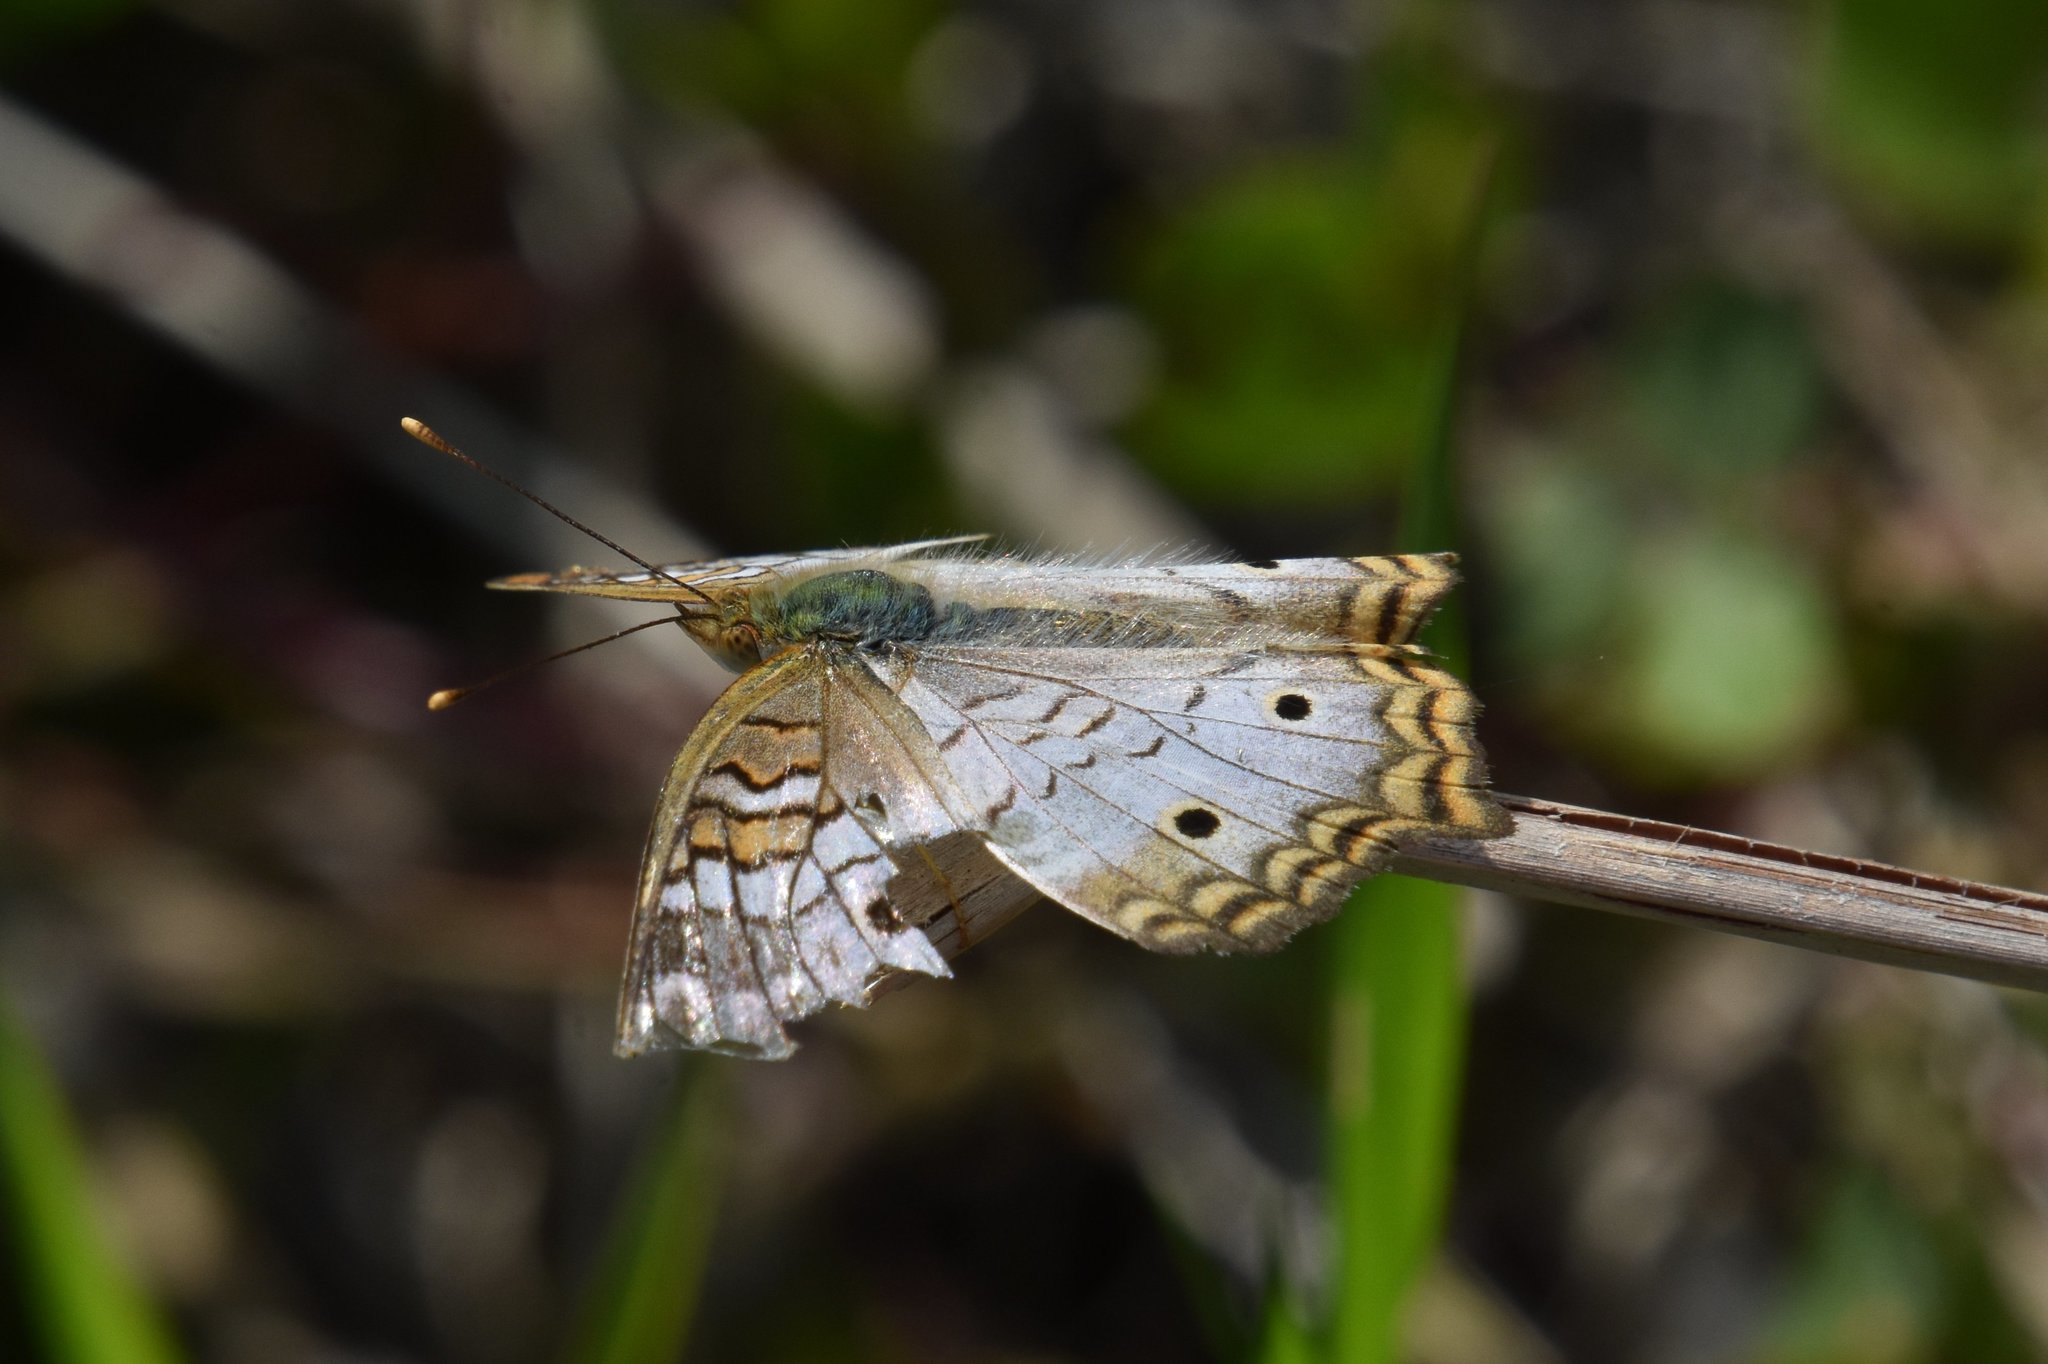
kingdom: Animalia
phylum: Arthropoda
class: Insecta
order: Lepidoptera
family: Nymphalidae
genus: Anartia
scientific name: Anartia jatrophae
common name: White peacock
